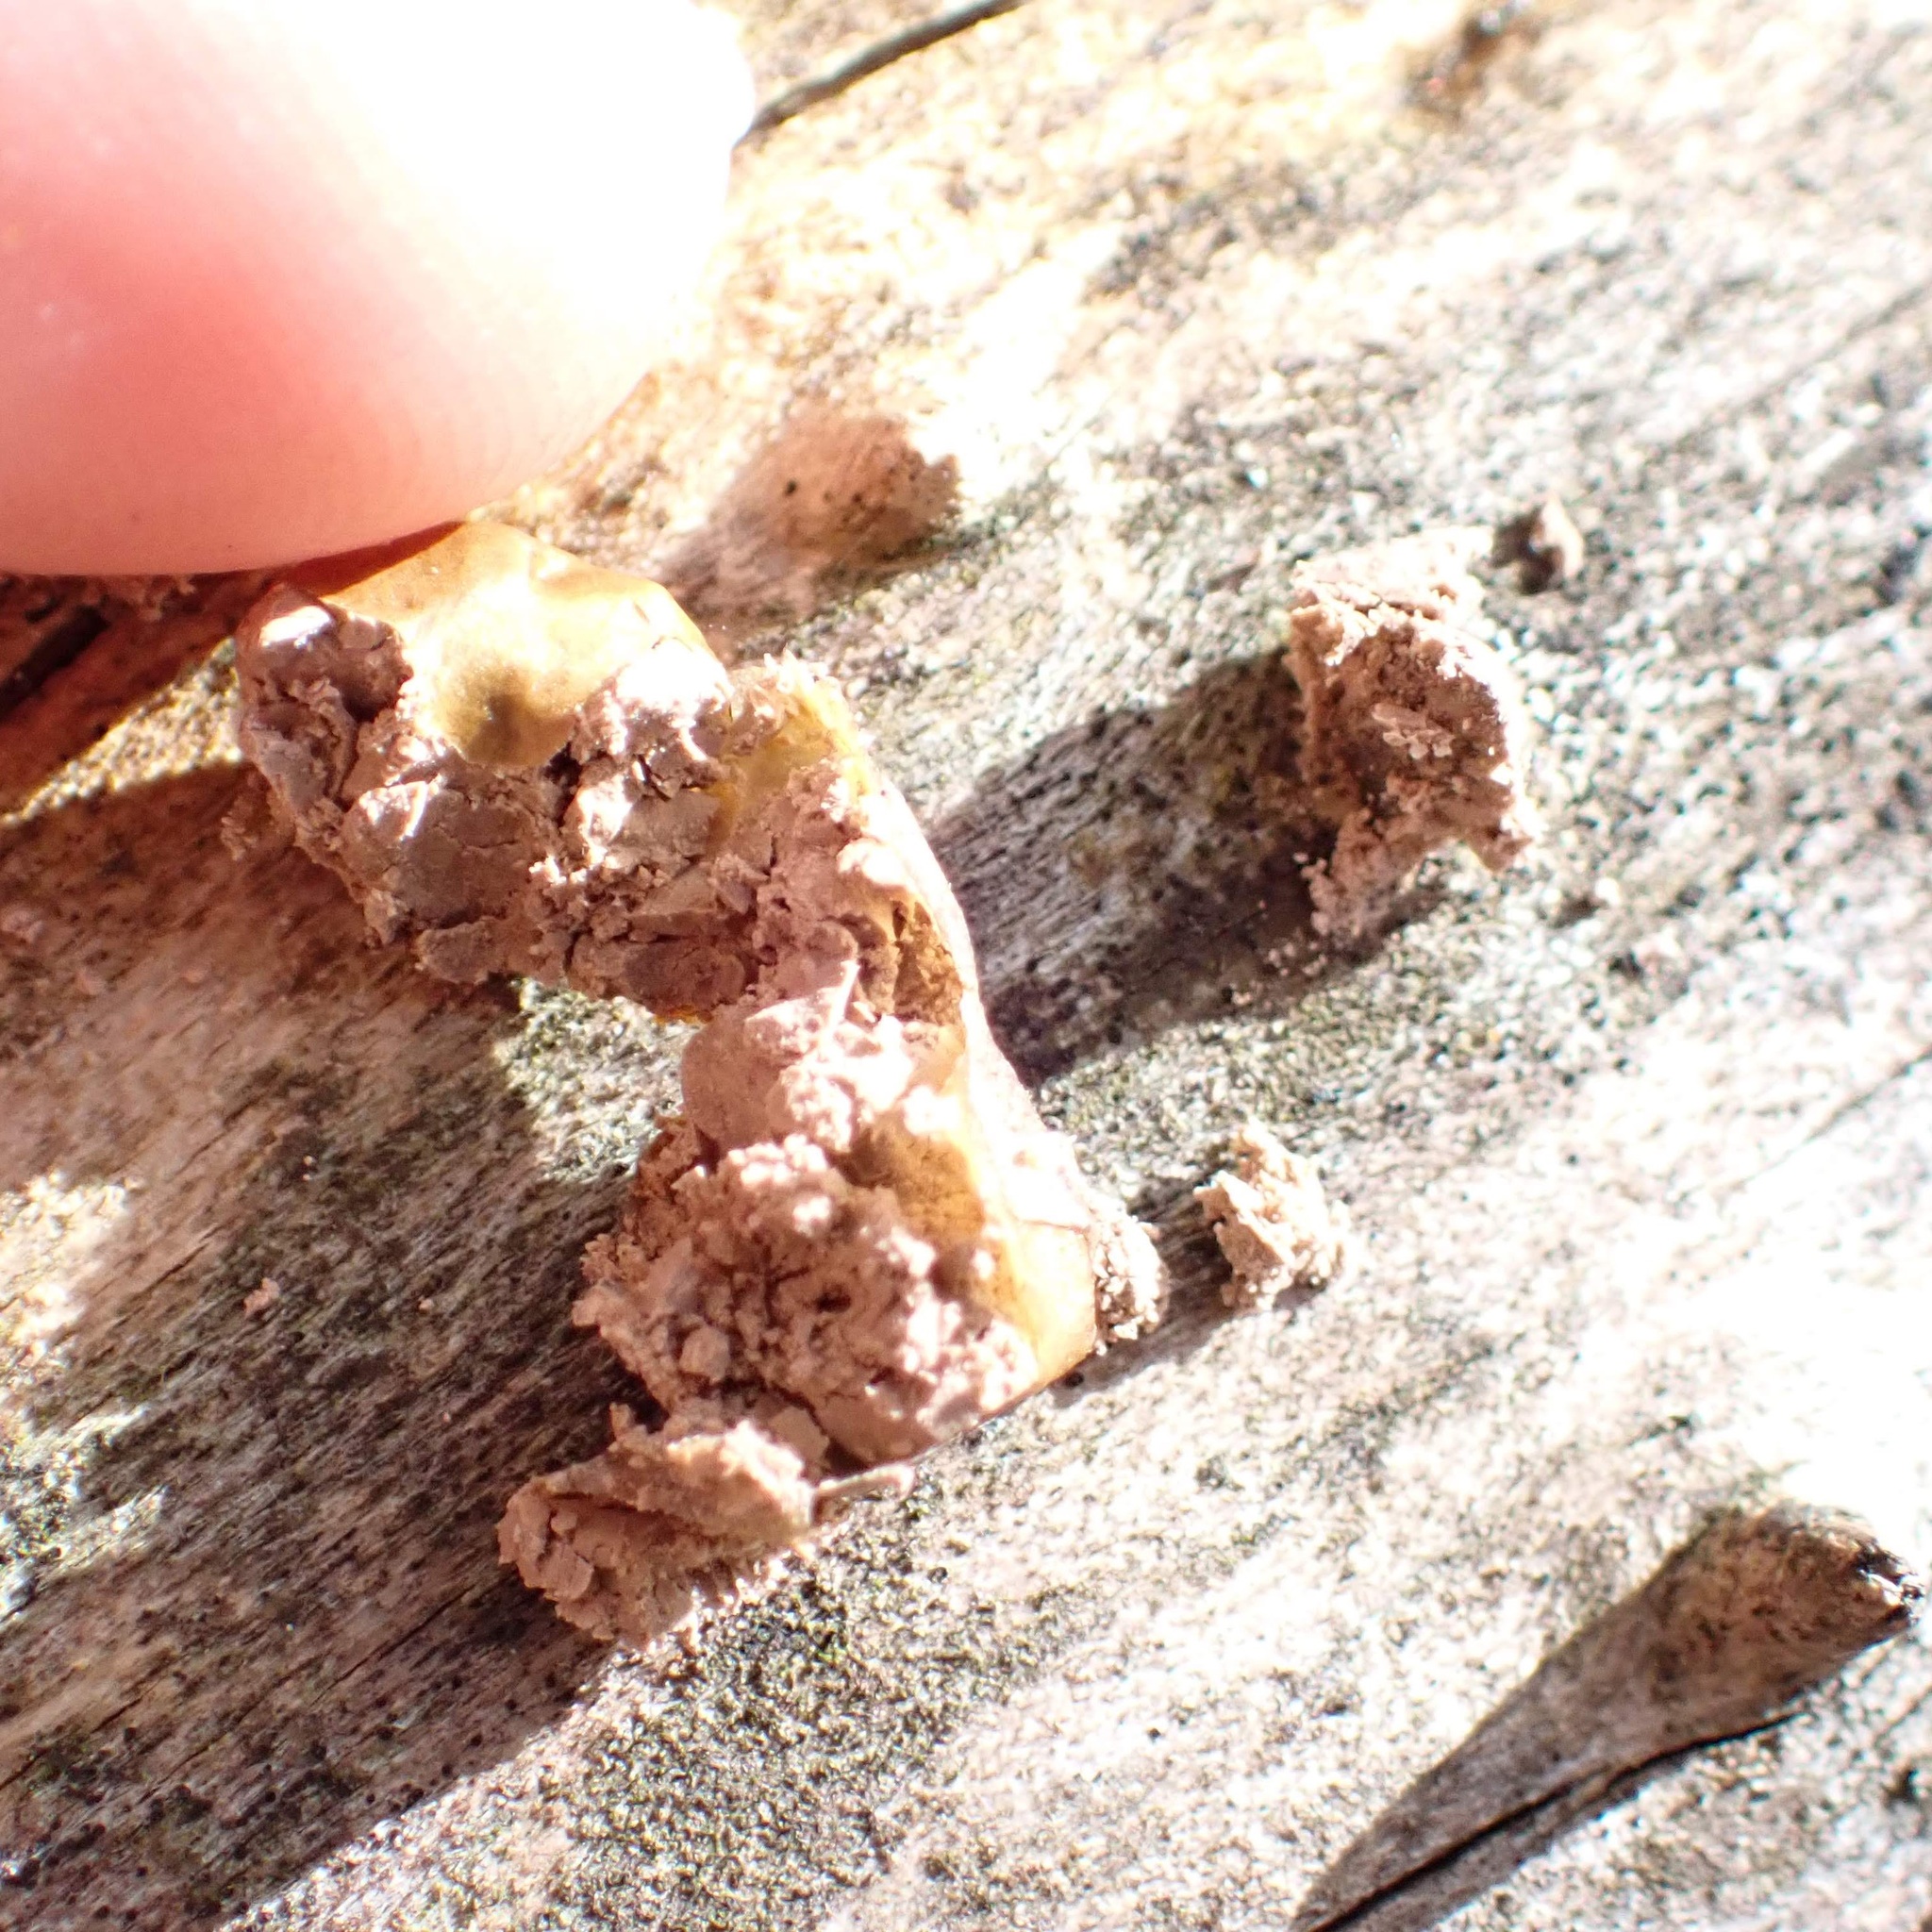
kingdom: Protozoa
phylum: Mycetozoa
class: Myxomycetes
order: Cribrariales
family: Tubiferaceae
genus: Lycogala
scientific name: Lycogala
